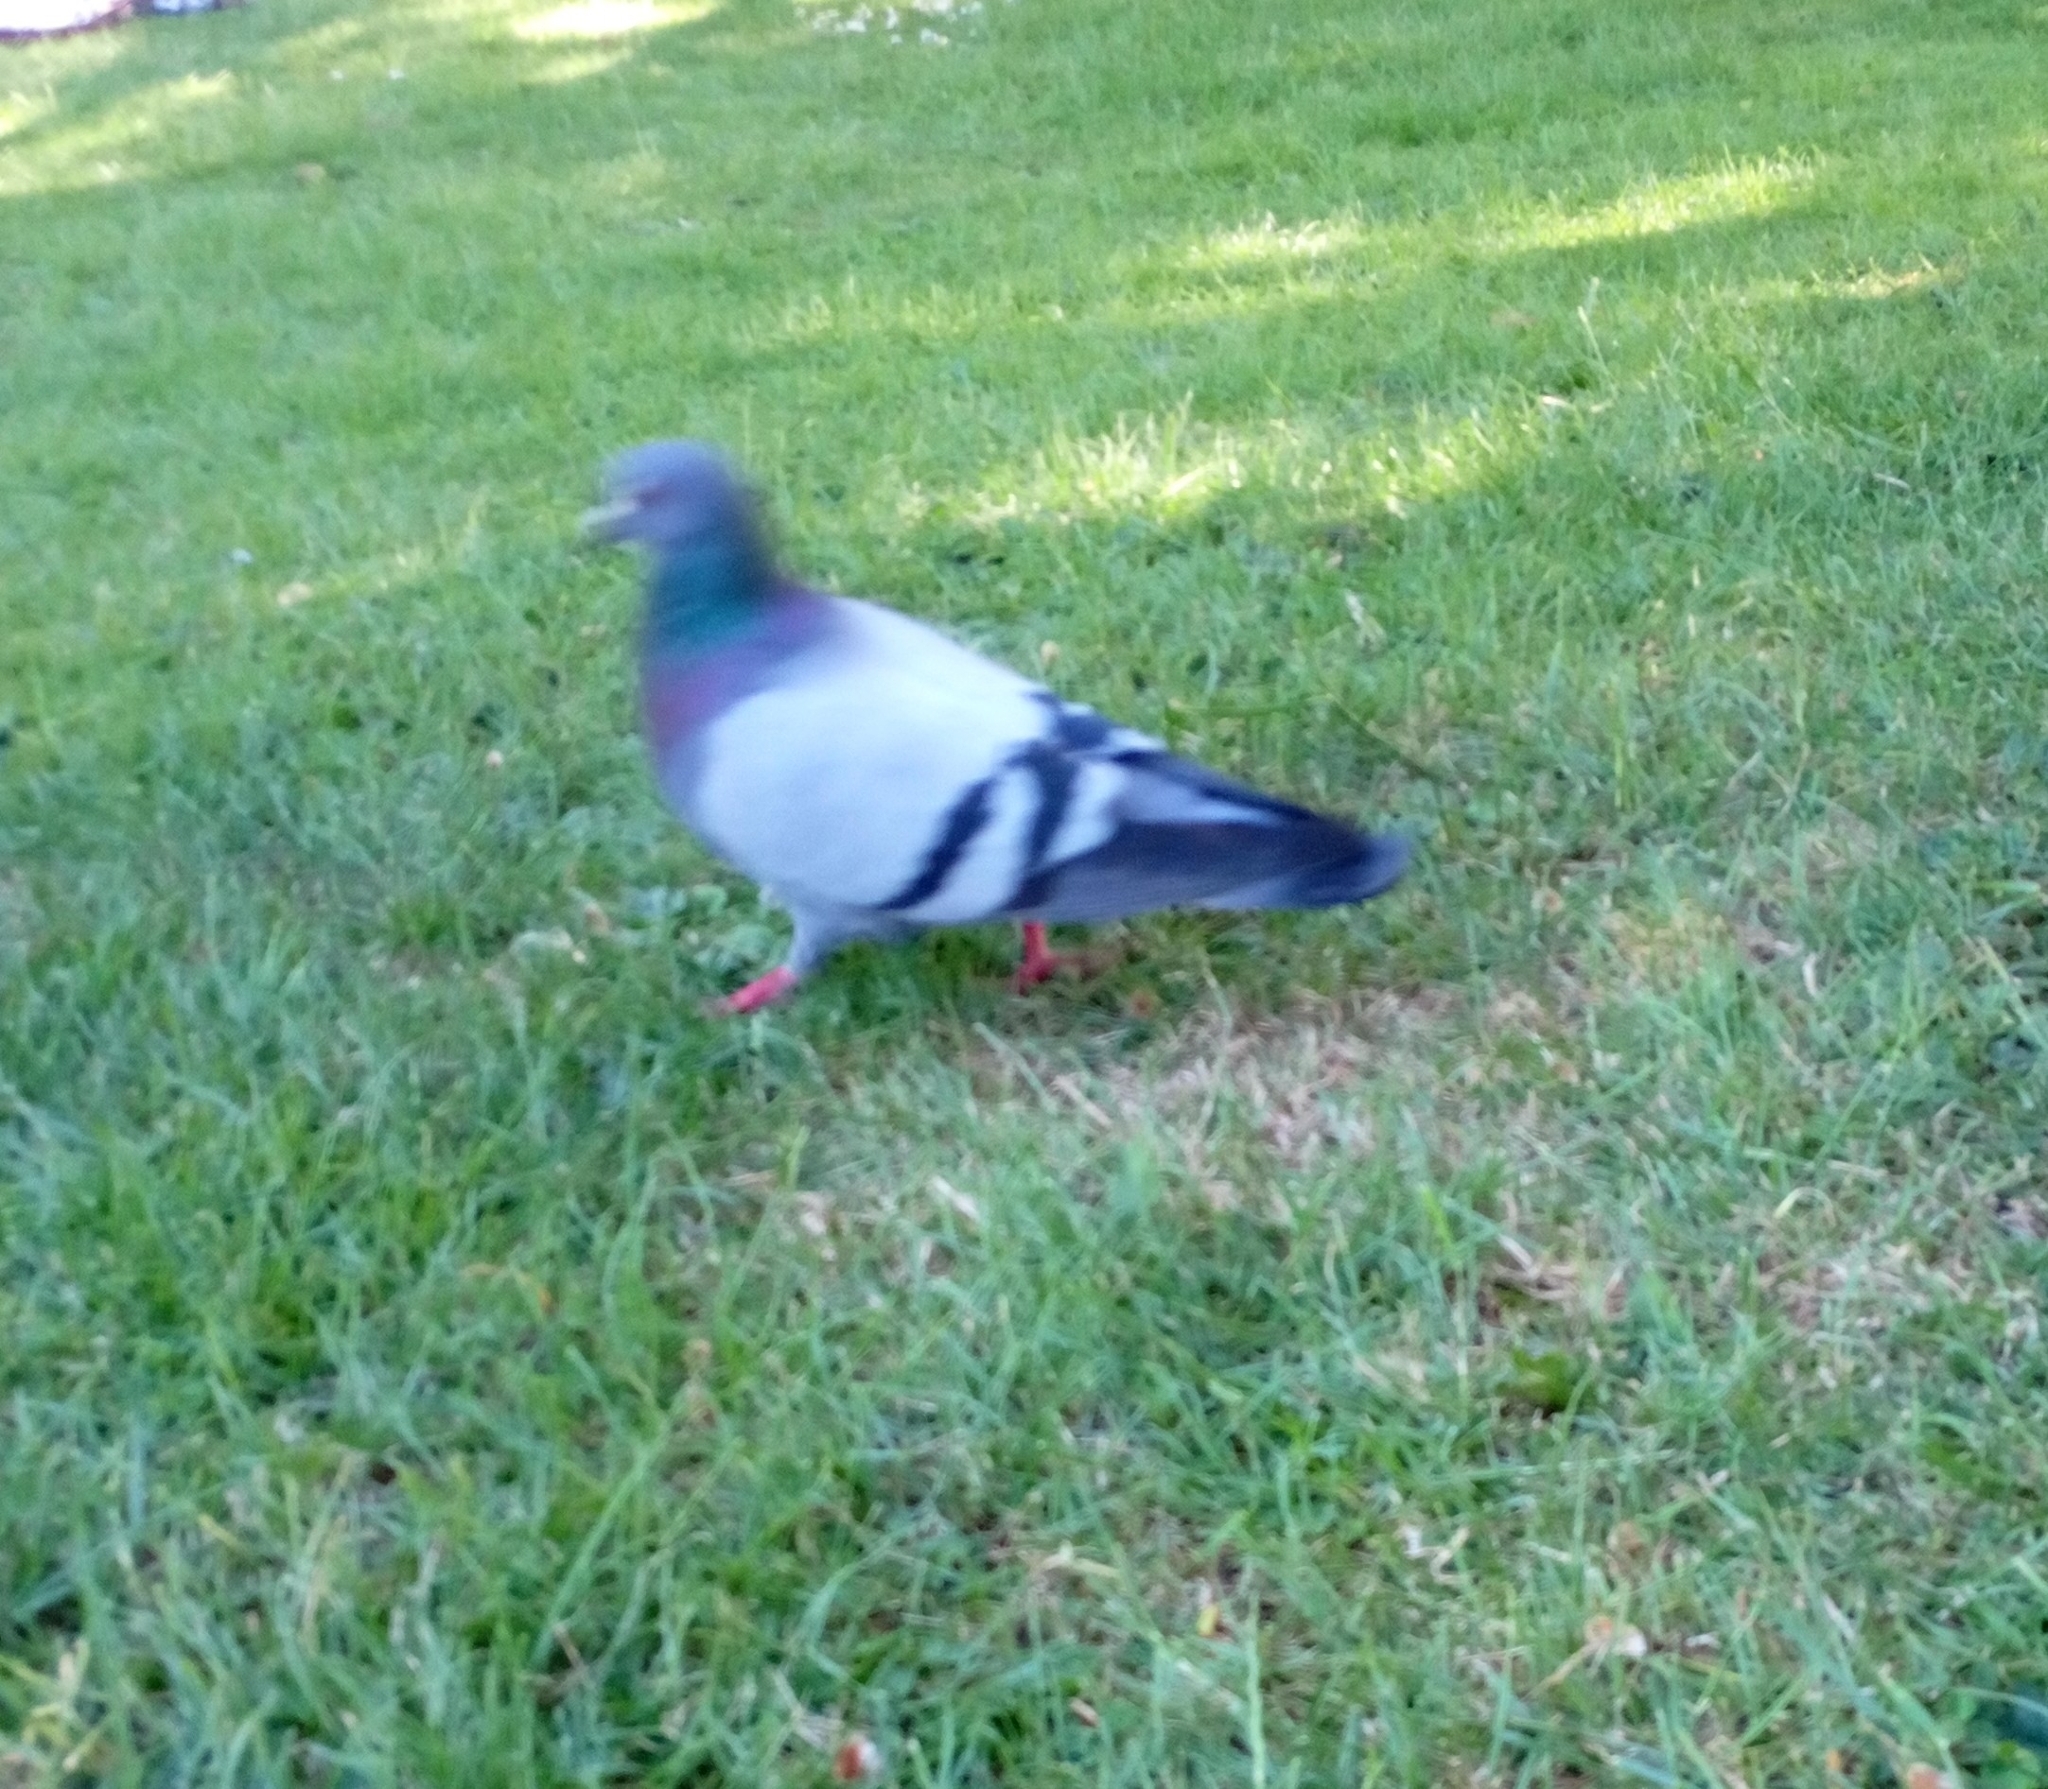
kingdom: Animalia
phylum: Chordata
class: Aves
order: Columbiformes
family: Columbidae
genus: Columba
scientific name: Columba livia
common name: Rock pigeon
